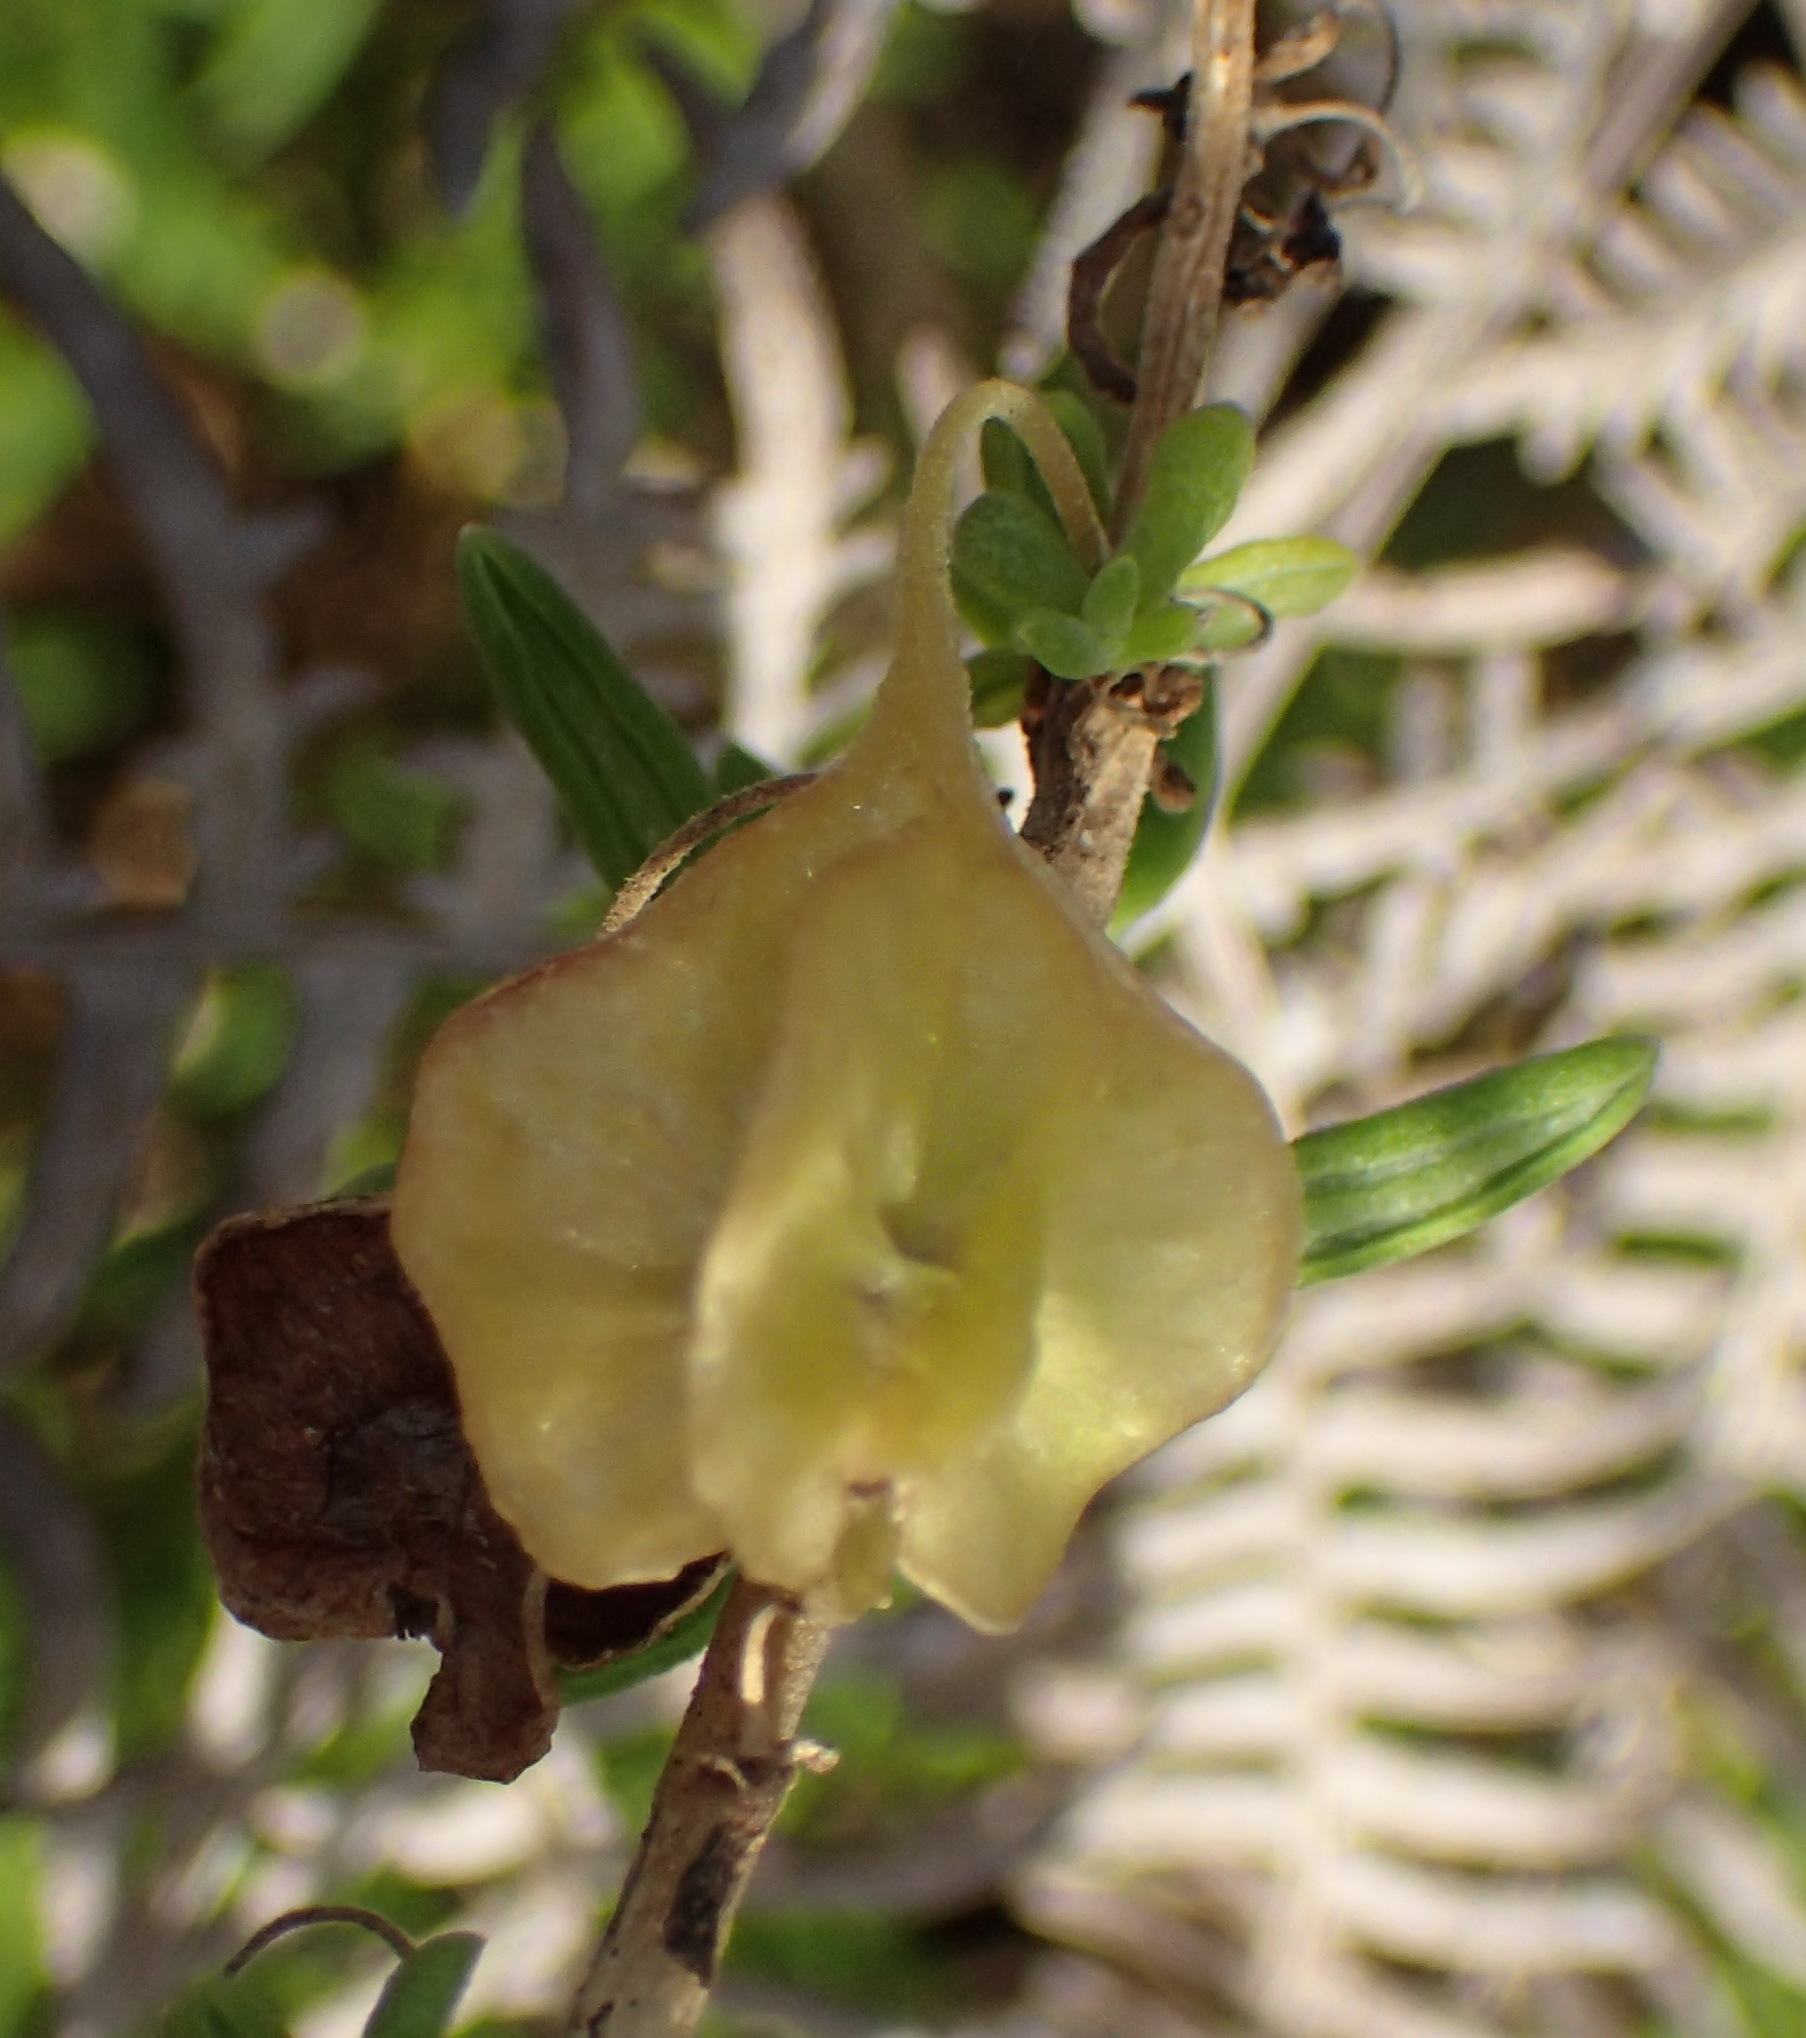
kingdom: Plantae
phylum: Tracheophyta
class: Magnoliopsida
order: Caryophyllales
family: Aizoaceae
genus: Tetragonia
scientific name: Tetragonia fruticosa
